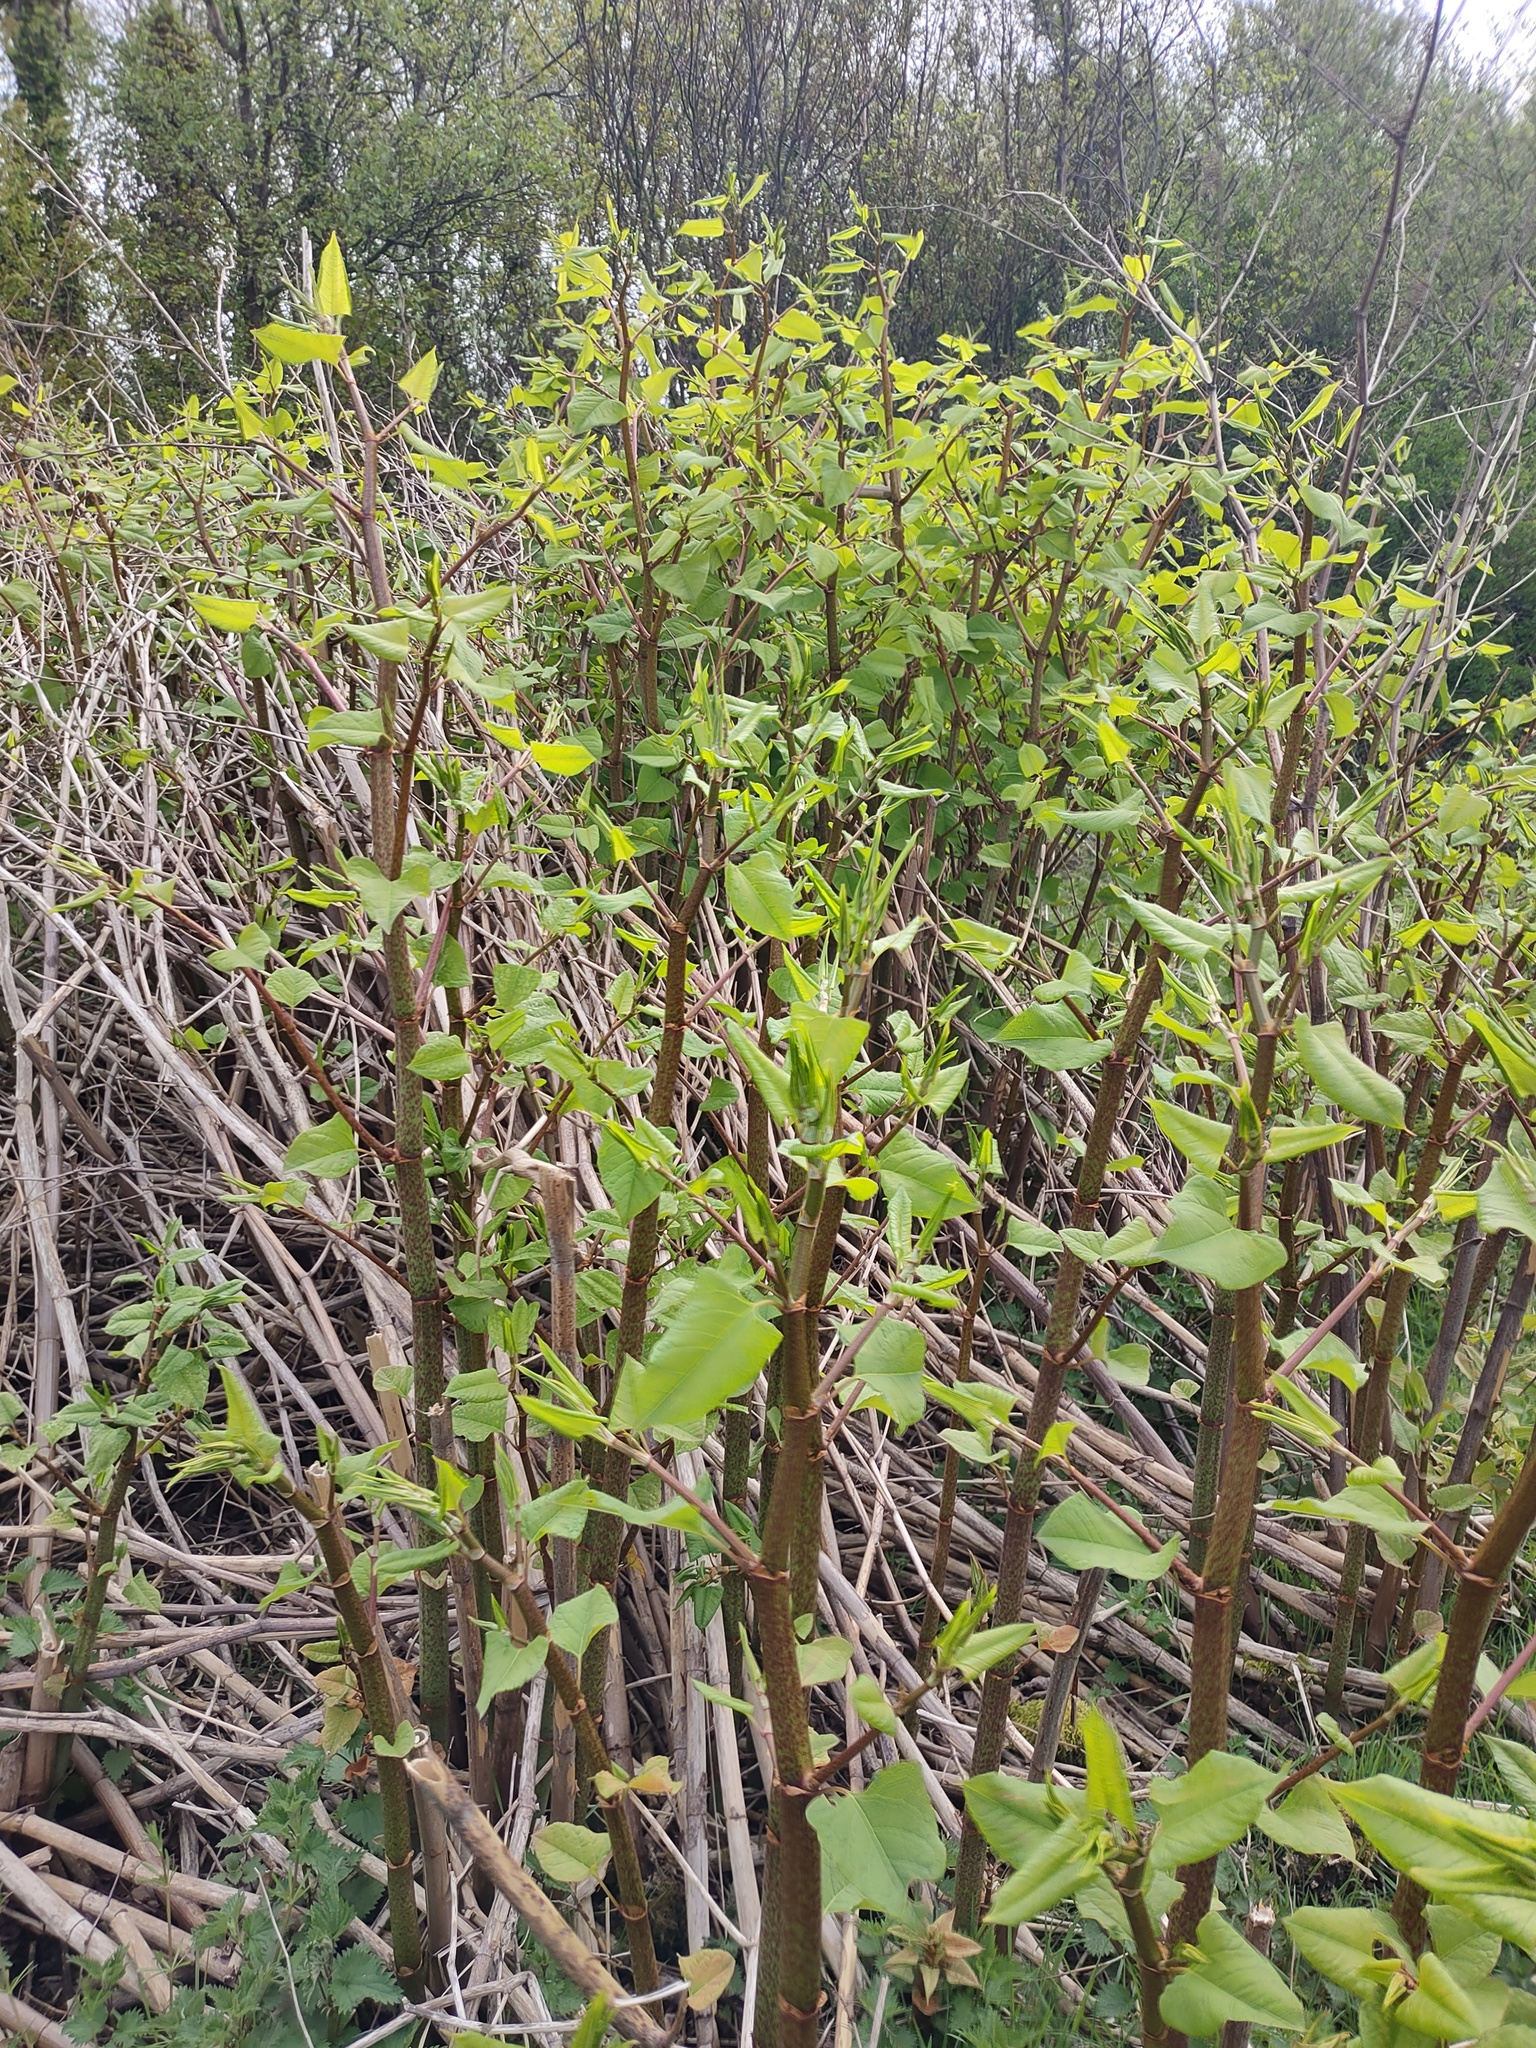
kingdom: Plantae
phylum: Tracheophyta
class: Magnoliopsida
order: Caryophyllales
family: Polygonaceae
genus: Reynoutria
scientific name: Reynoutria japonica
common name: Japanese knotweed
